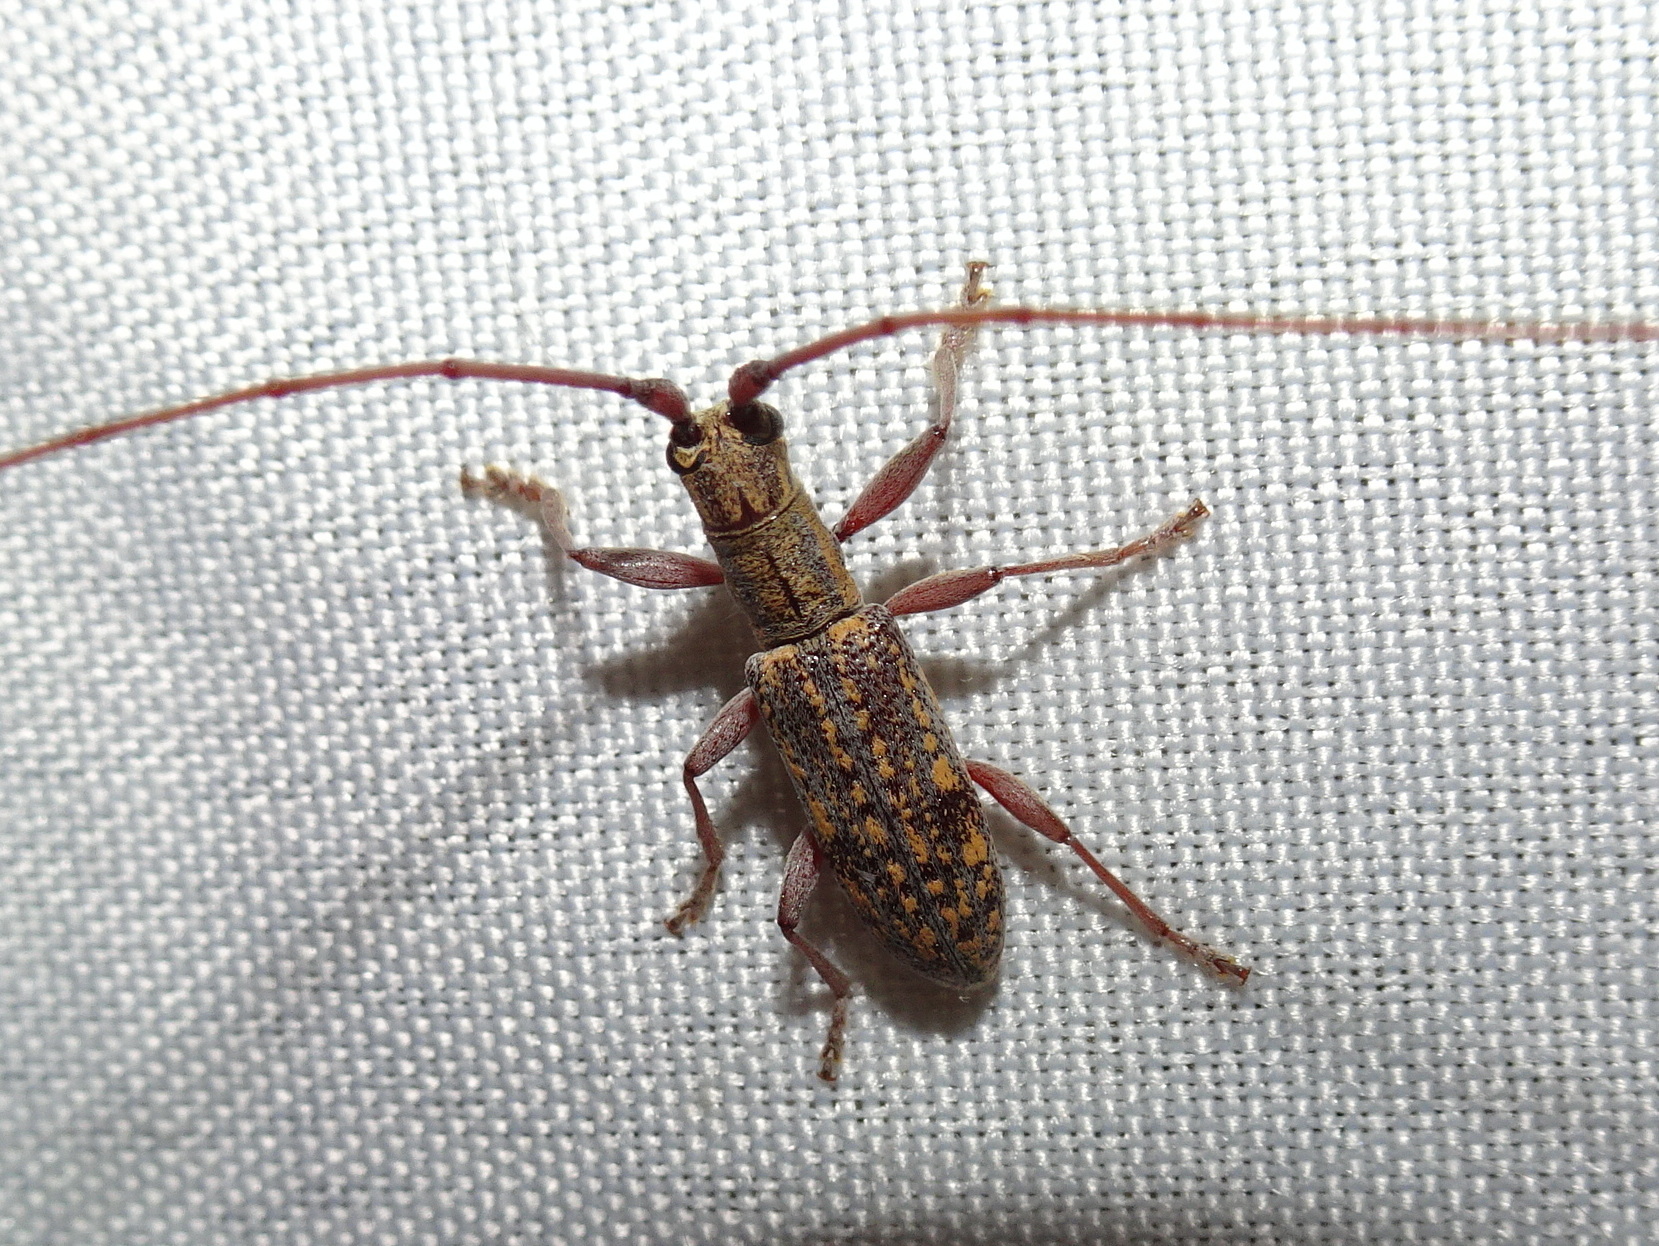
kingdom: Animalia
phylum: Arthropoda
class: Insecta
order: Coleoptera
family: Cerambycidae
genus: Dorcaschema
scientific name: Dorcaschema alternatum
